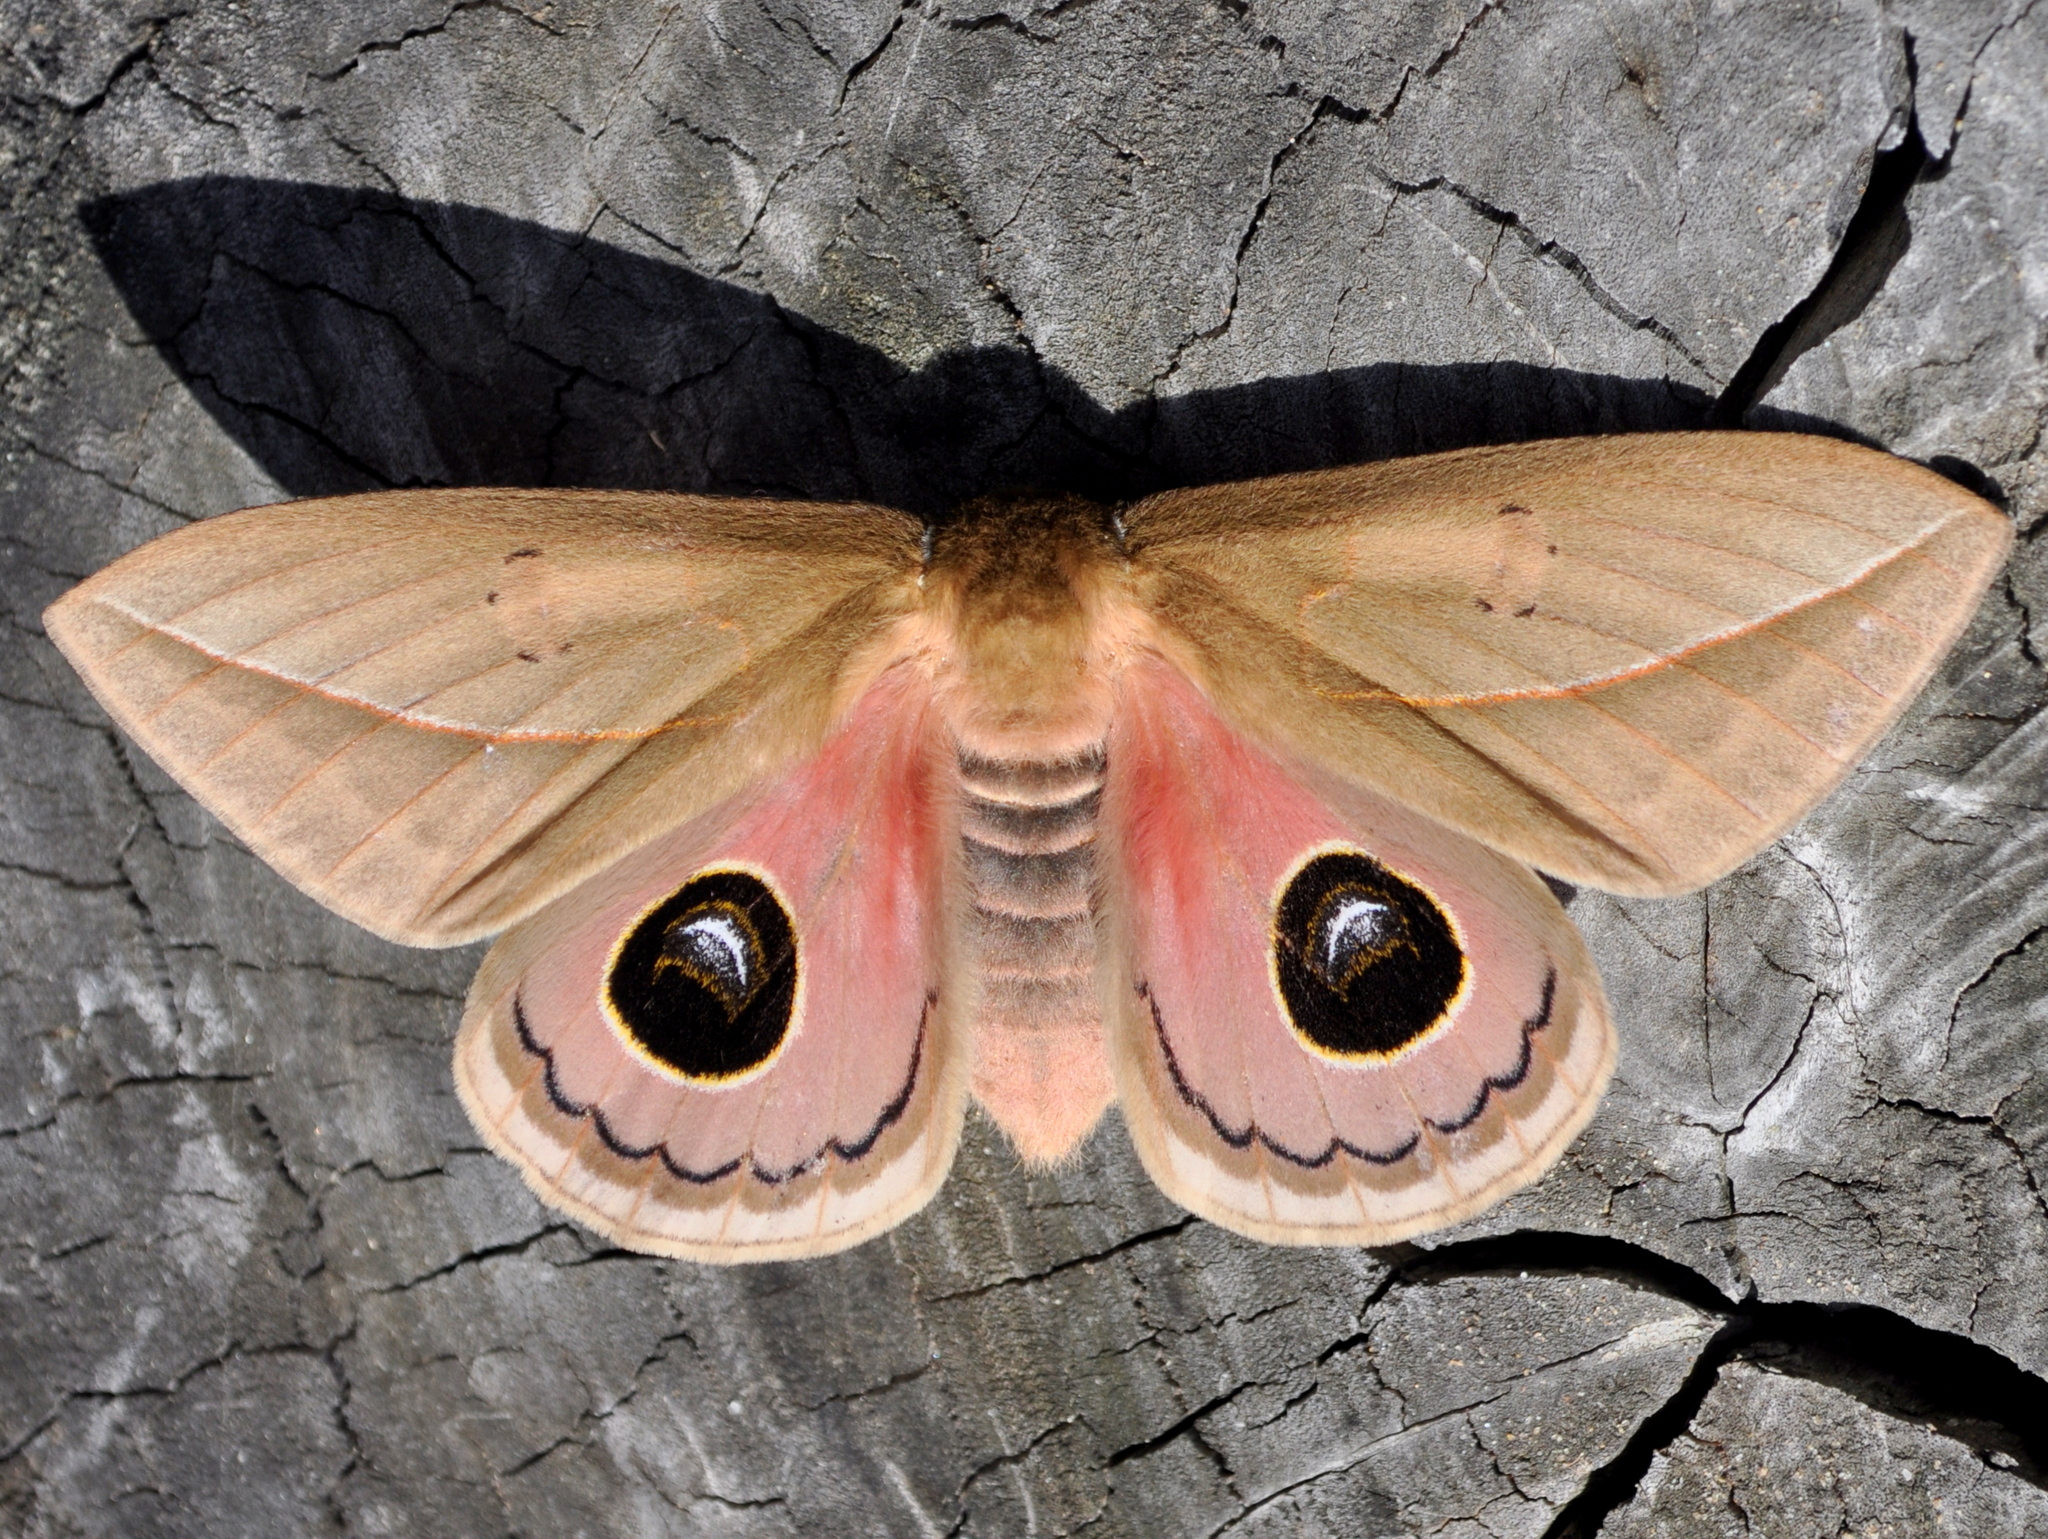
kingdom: Animalia
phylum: Arthropoda
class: Insecta
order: Lepidoptera
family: Saturniidae
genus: Pseudautomeris
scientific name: Pseudautomeris grammivora
